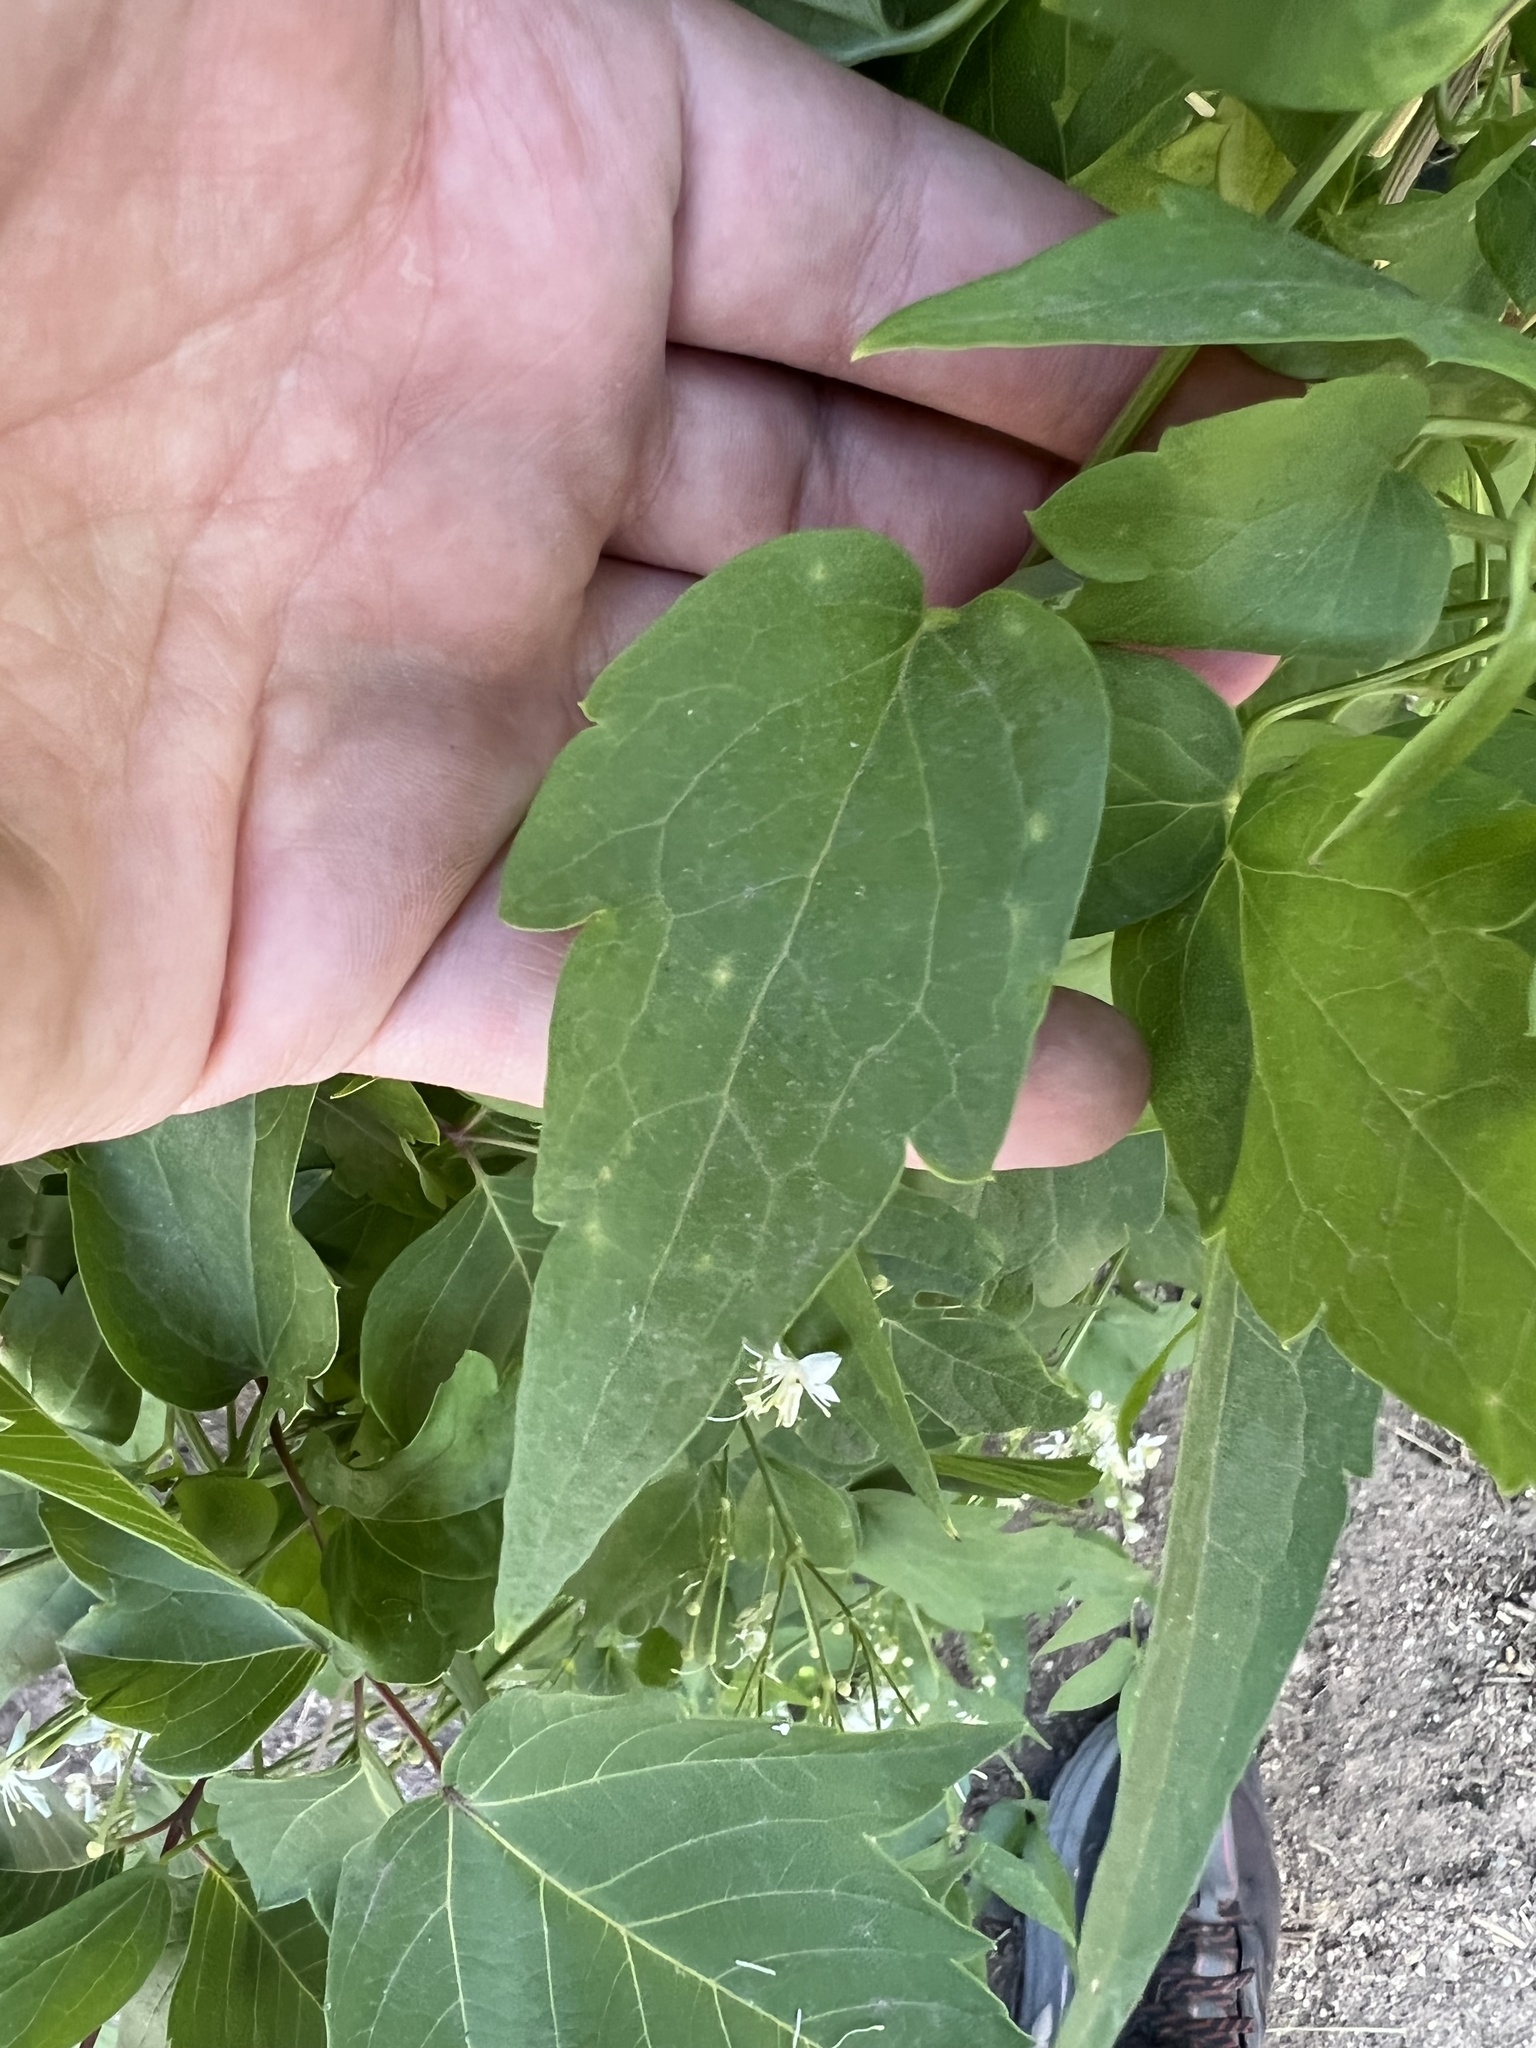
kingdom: Plantae
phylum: Tracheophyta
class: Magnoliopsida
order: Ranunculales
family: Ranunculaceae
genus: Clematis
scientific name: Clematis ligusticifolia
